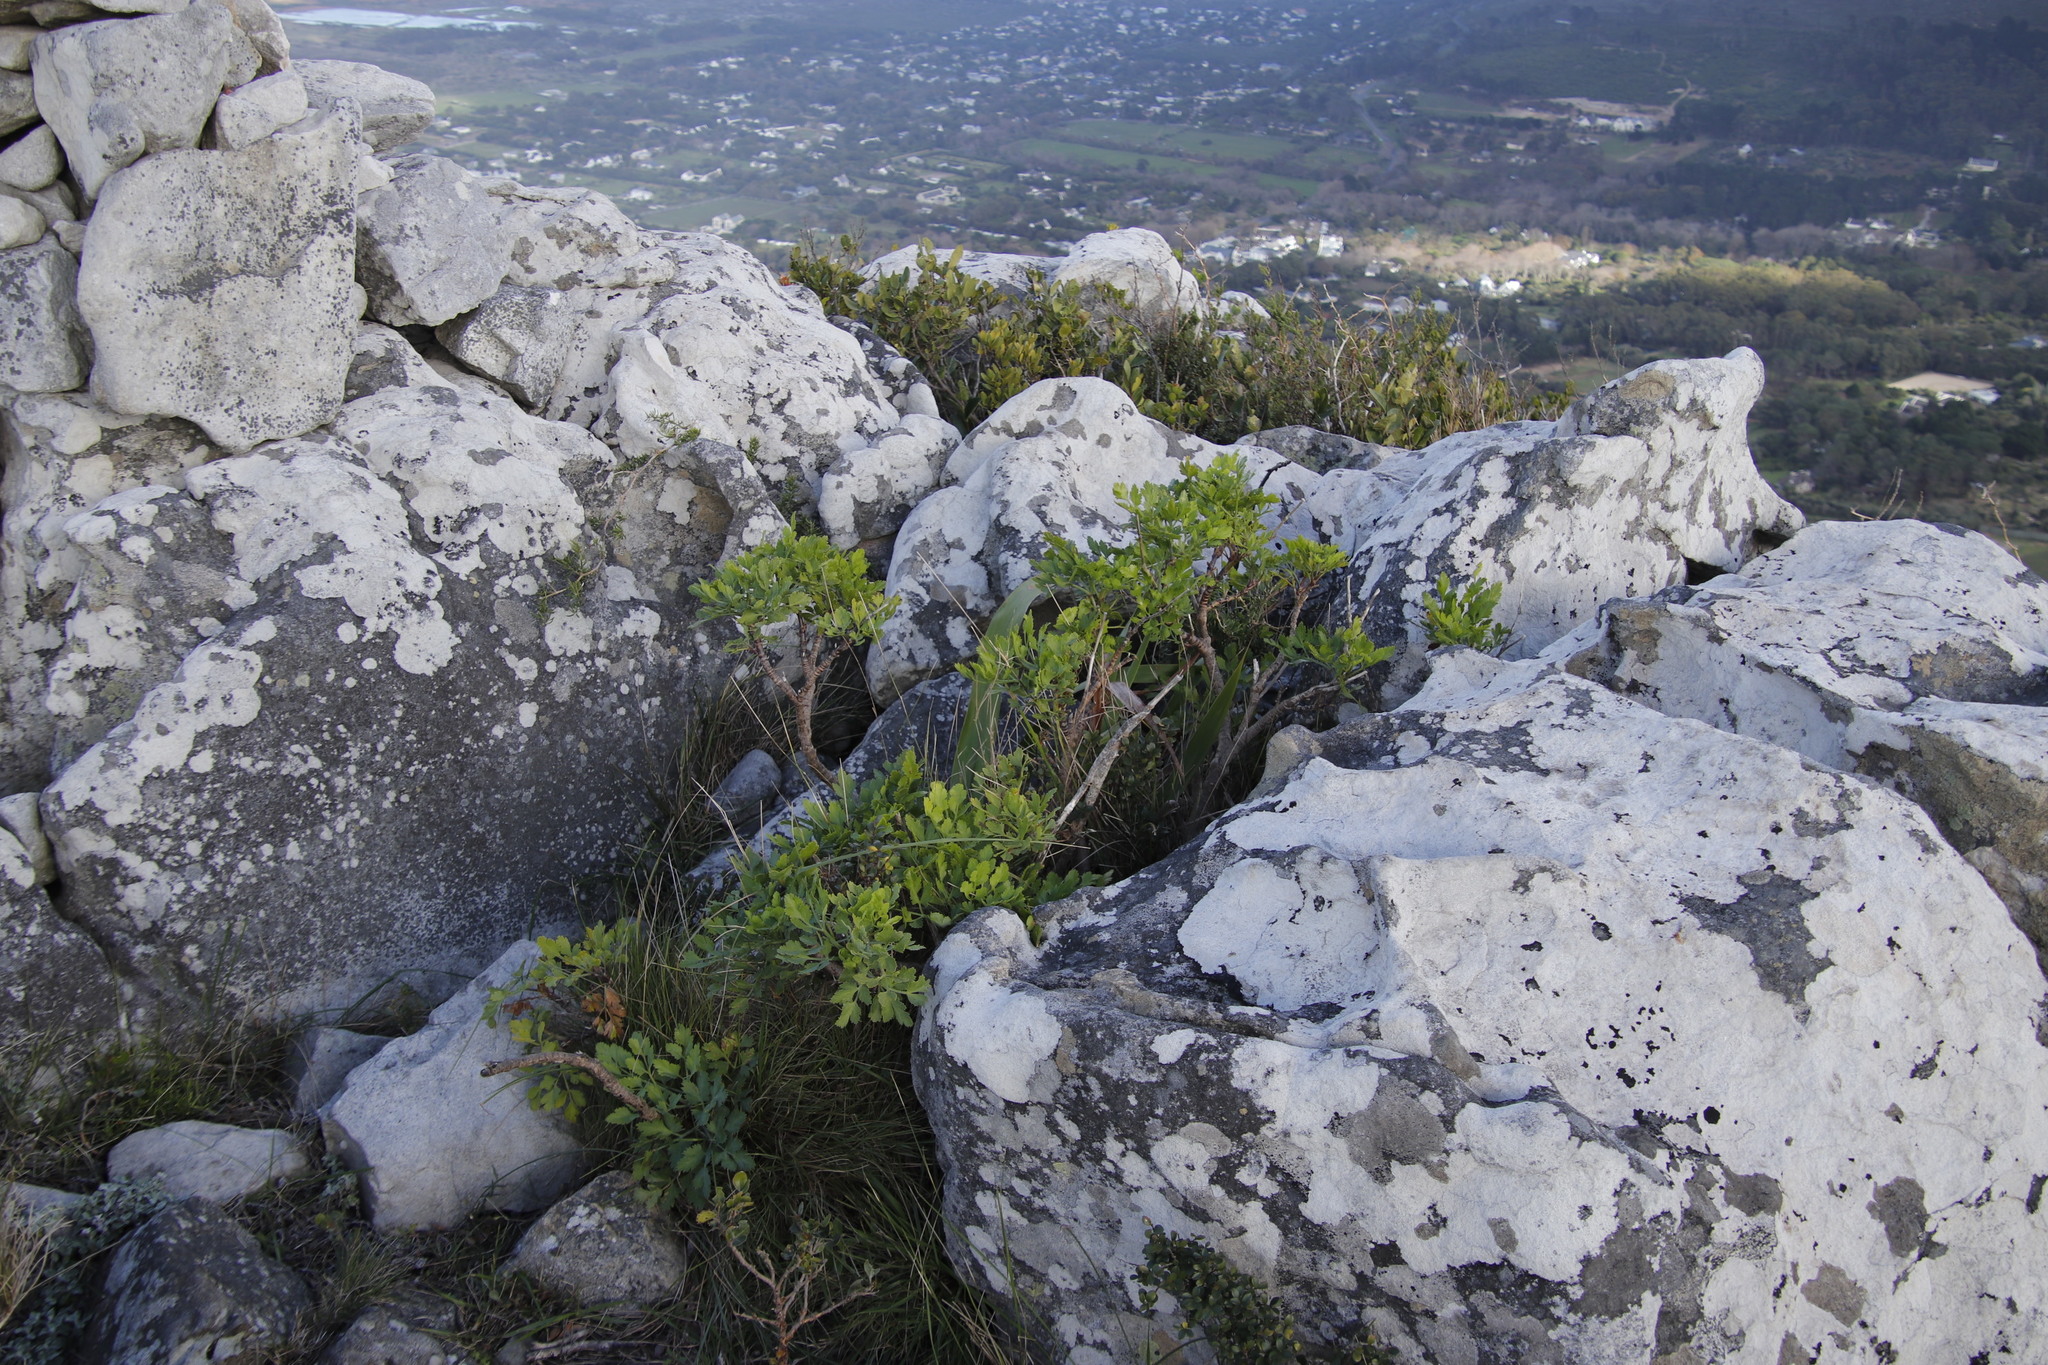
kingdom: Plantae
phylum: Tracheophyta
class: Magnoliopsida
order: Apiales
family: Apiaceae
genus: Notobubon
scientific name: Notobubon galbanum
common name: Blisterbush
